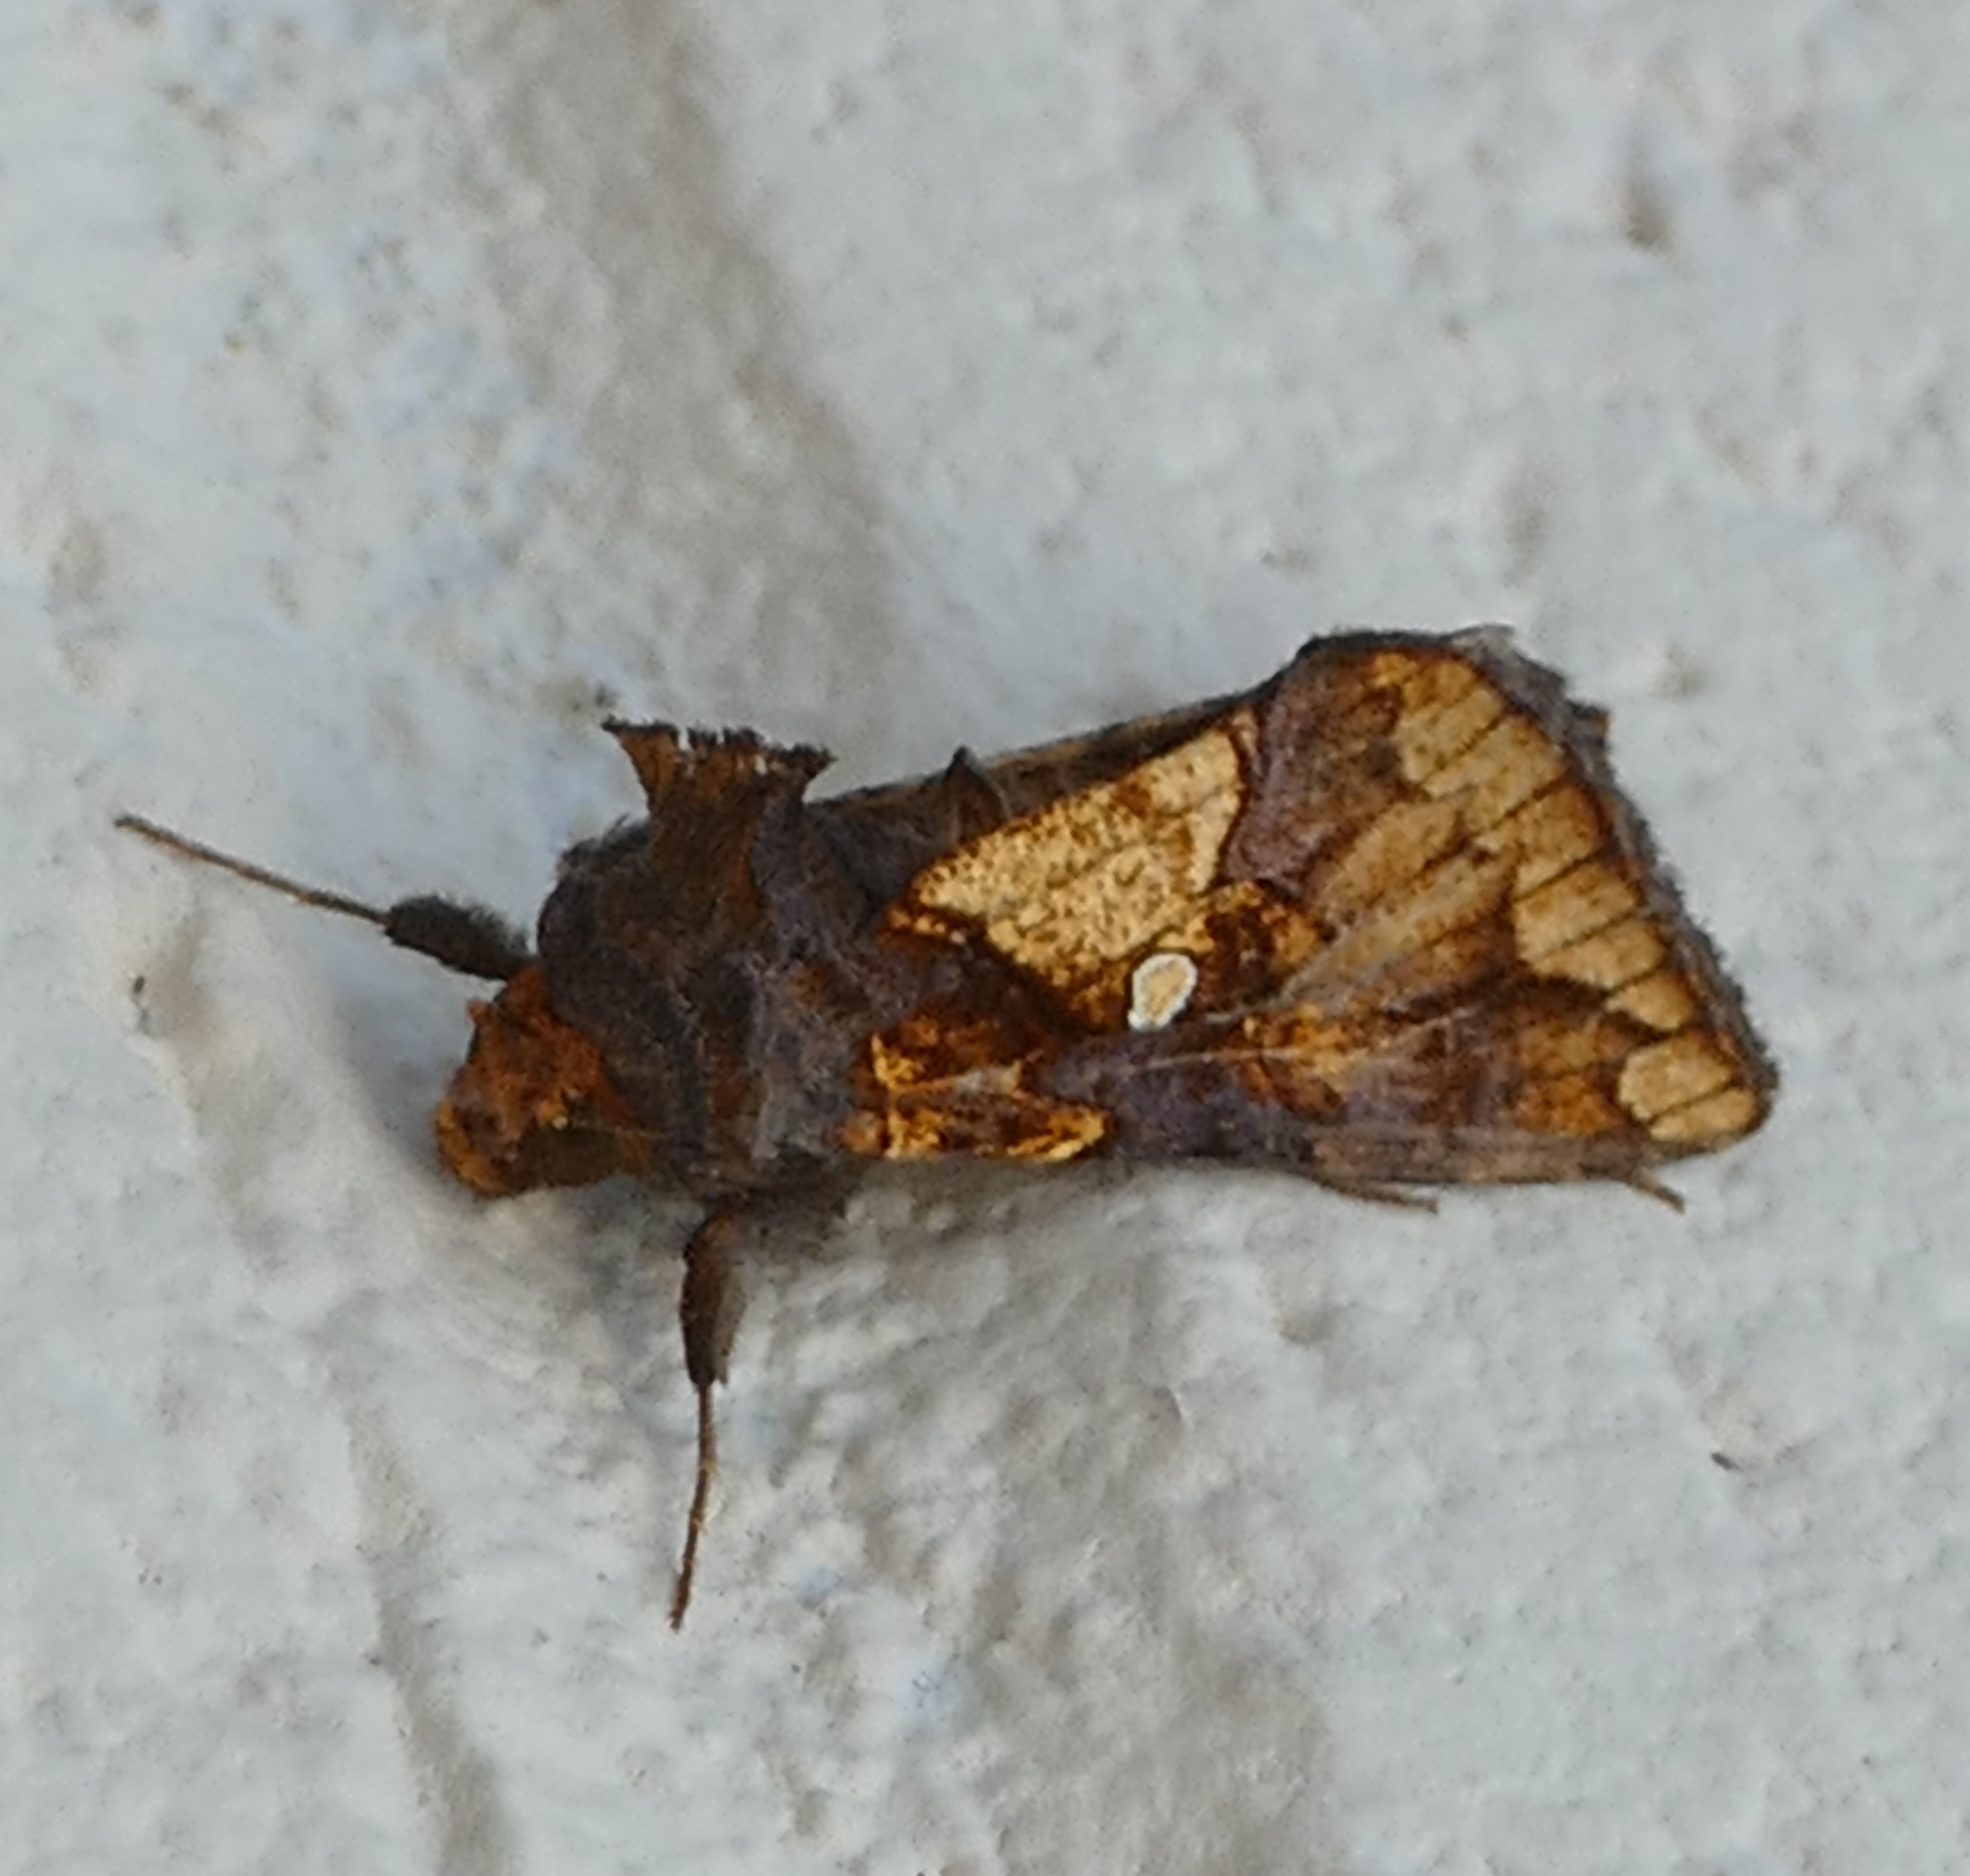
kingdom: Animalia
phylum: Arthropoda
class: Insecta
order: Lepidoptera
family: Noctuidae
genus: Argyrogramma
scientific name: Argyrogramma verruca
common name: Golden looper moth
